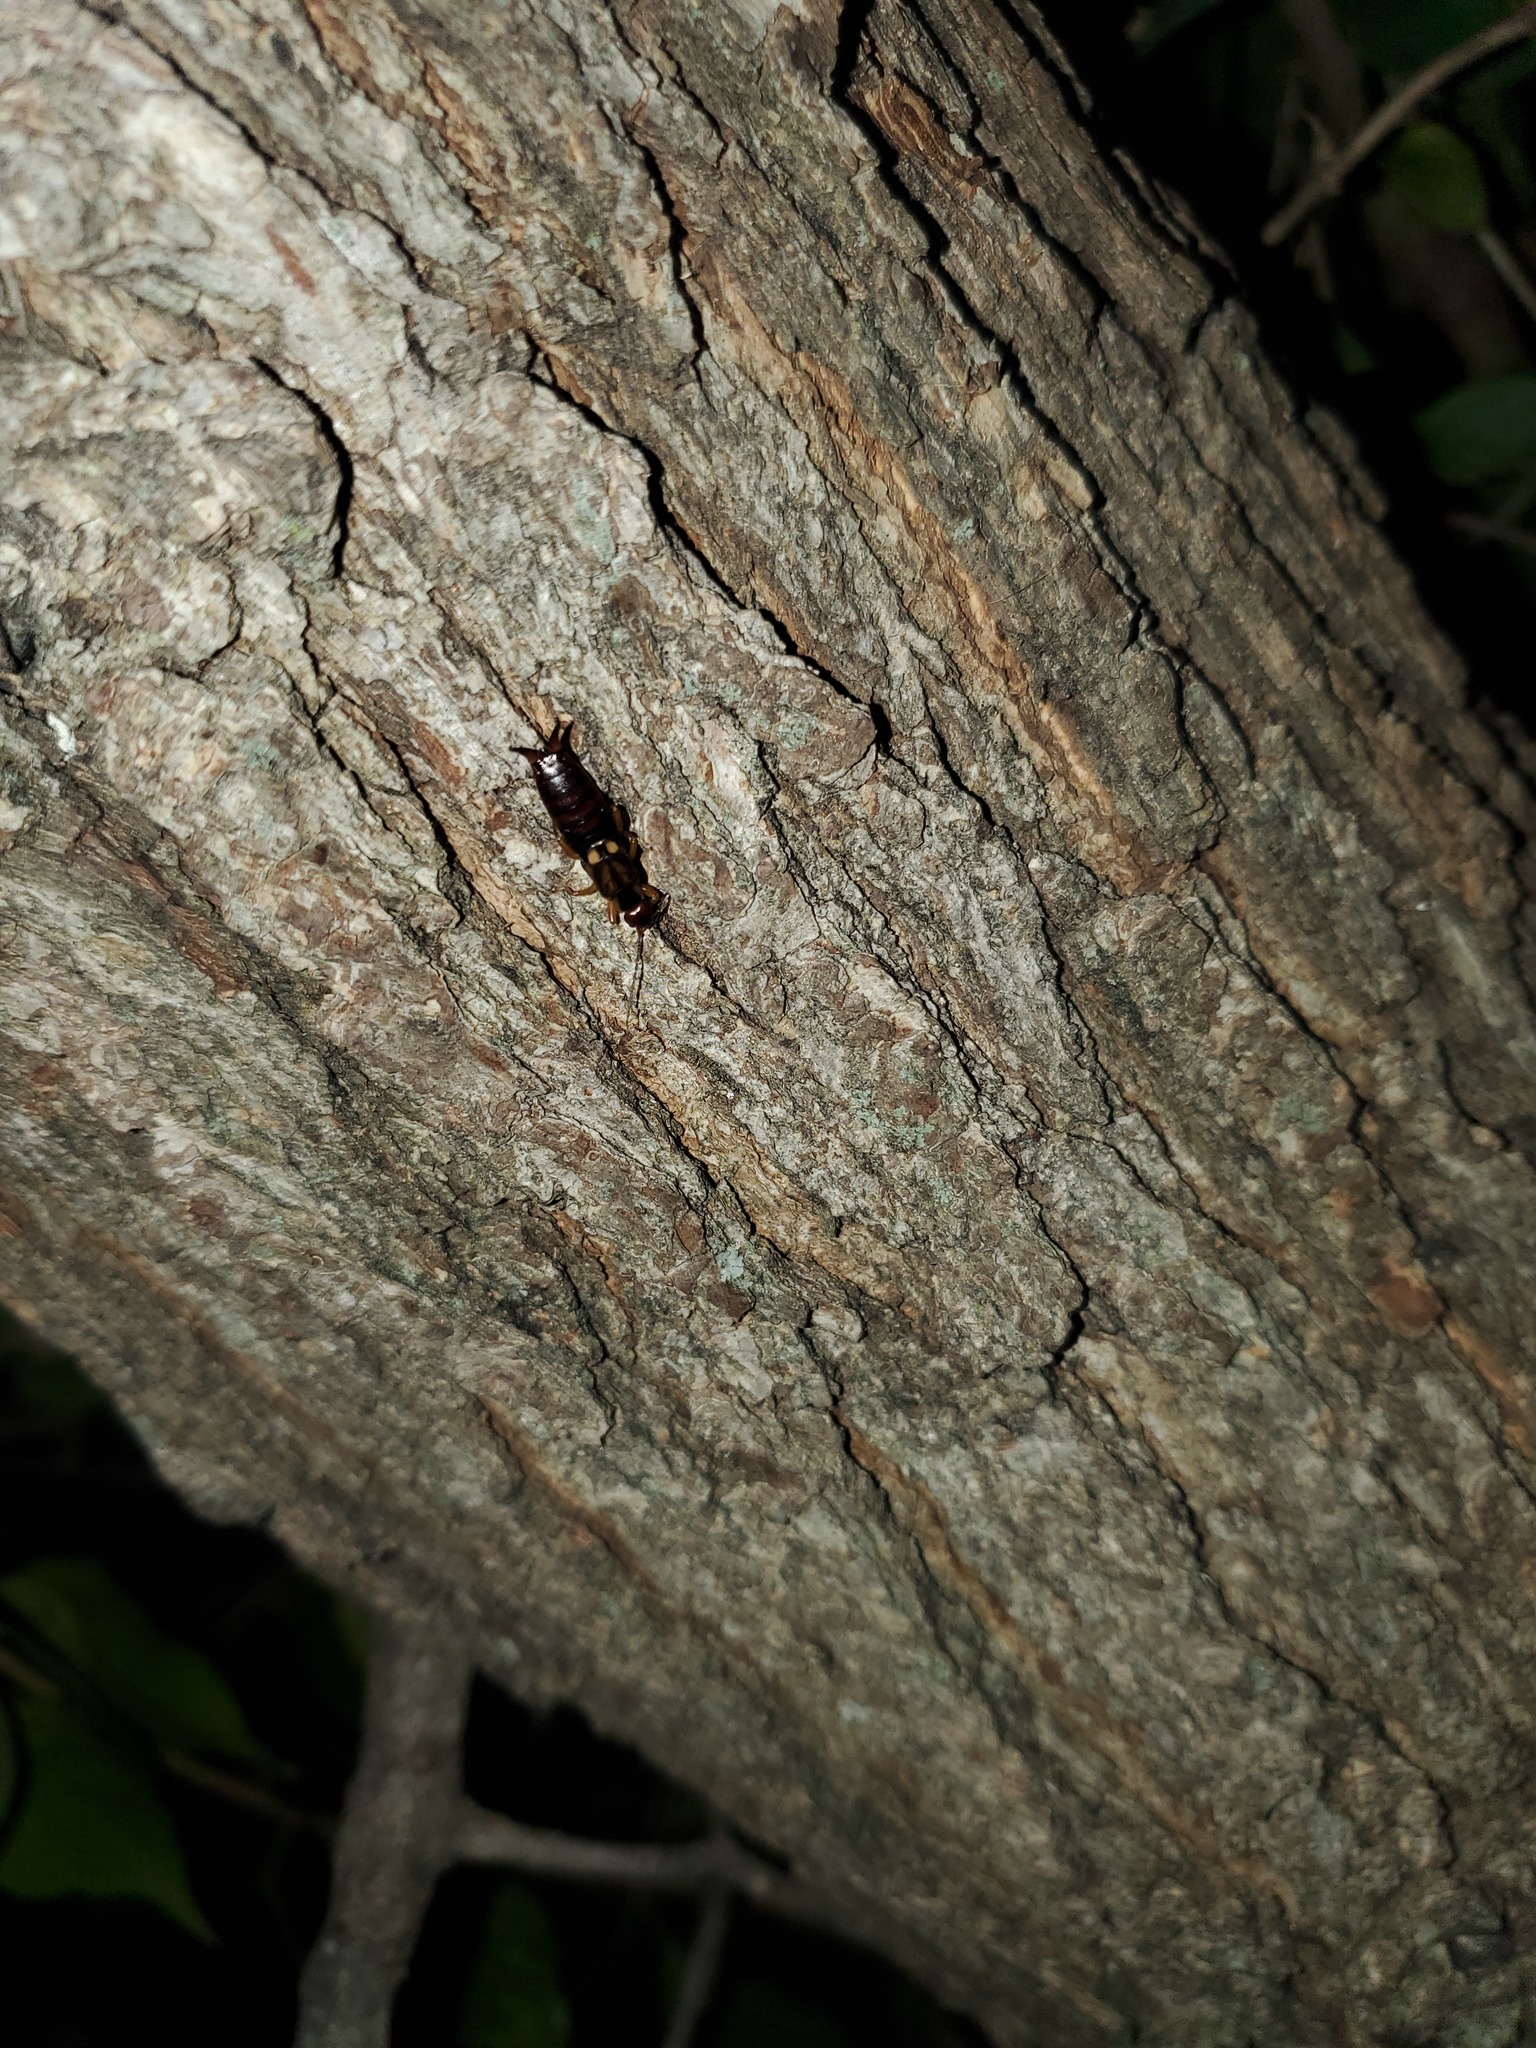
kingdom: Animalia
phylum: Arthropoda
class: Insecta
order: Dermaptera
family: Forficulidae
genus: Forficula
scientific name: Forficula
